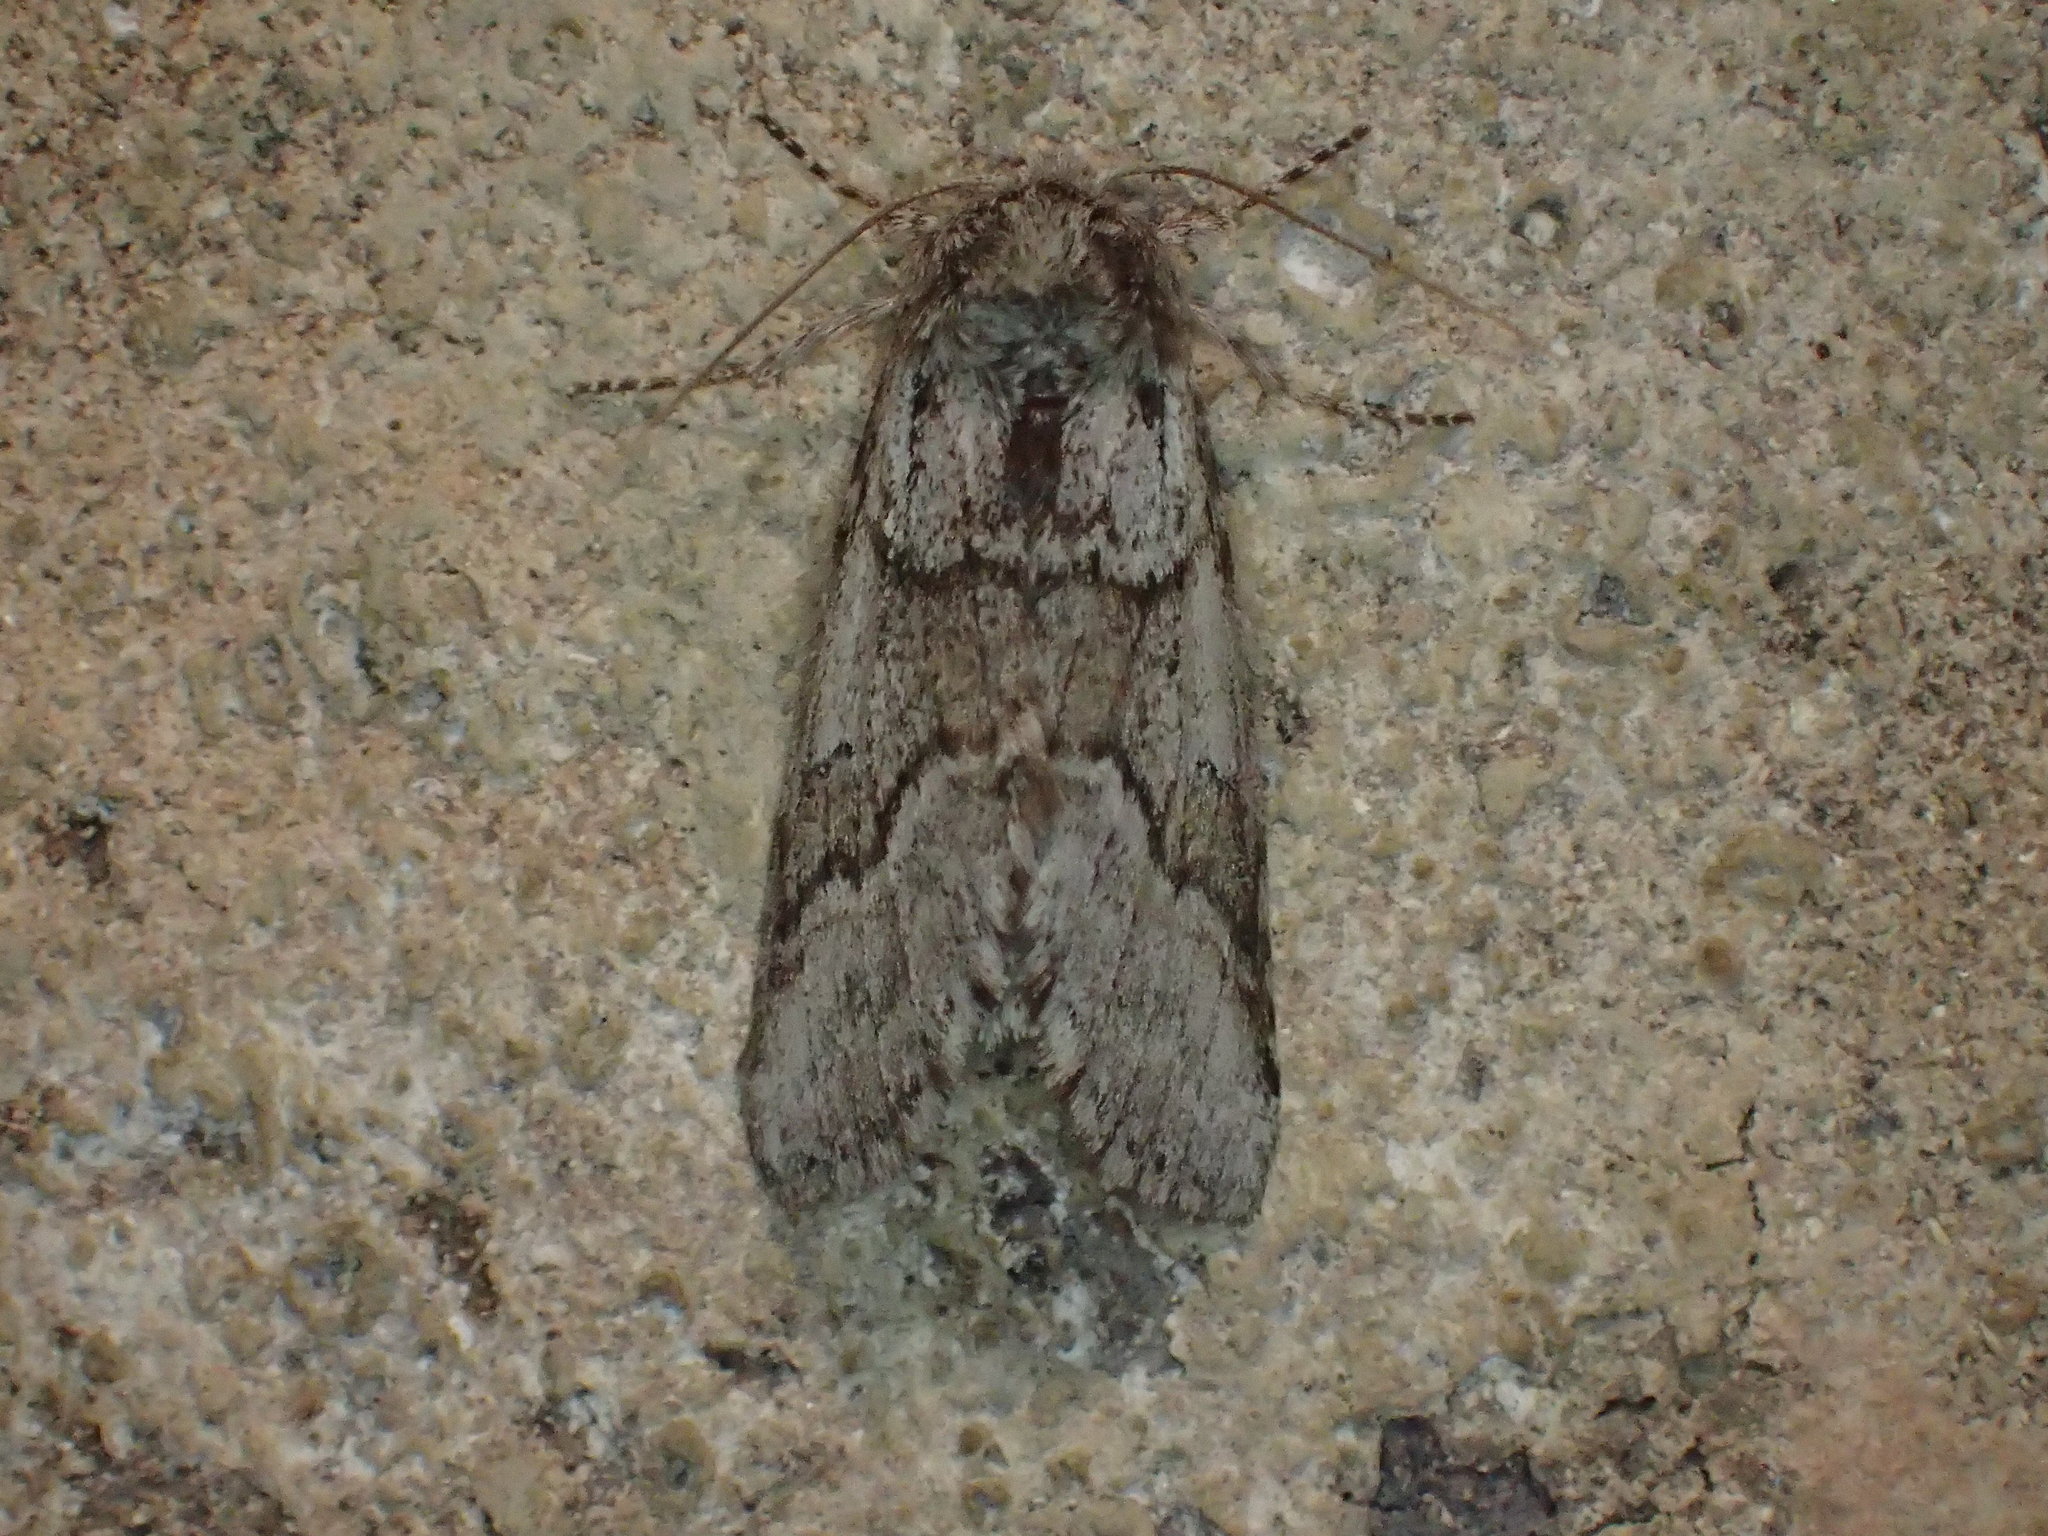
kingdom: Animalia
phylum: Arthropoda
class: Insecta
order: Lepidoptera
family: Notodontidae
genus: Lochmaeus
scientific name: Lochmaeus bilineata
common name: Double-lined prominent
